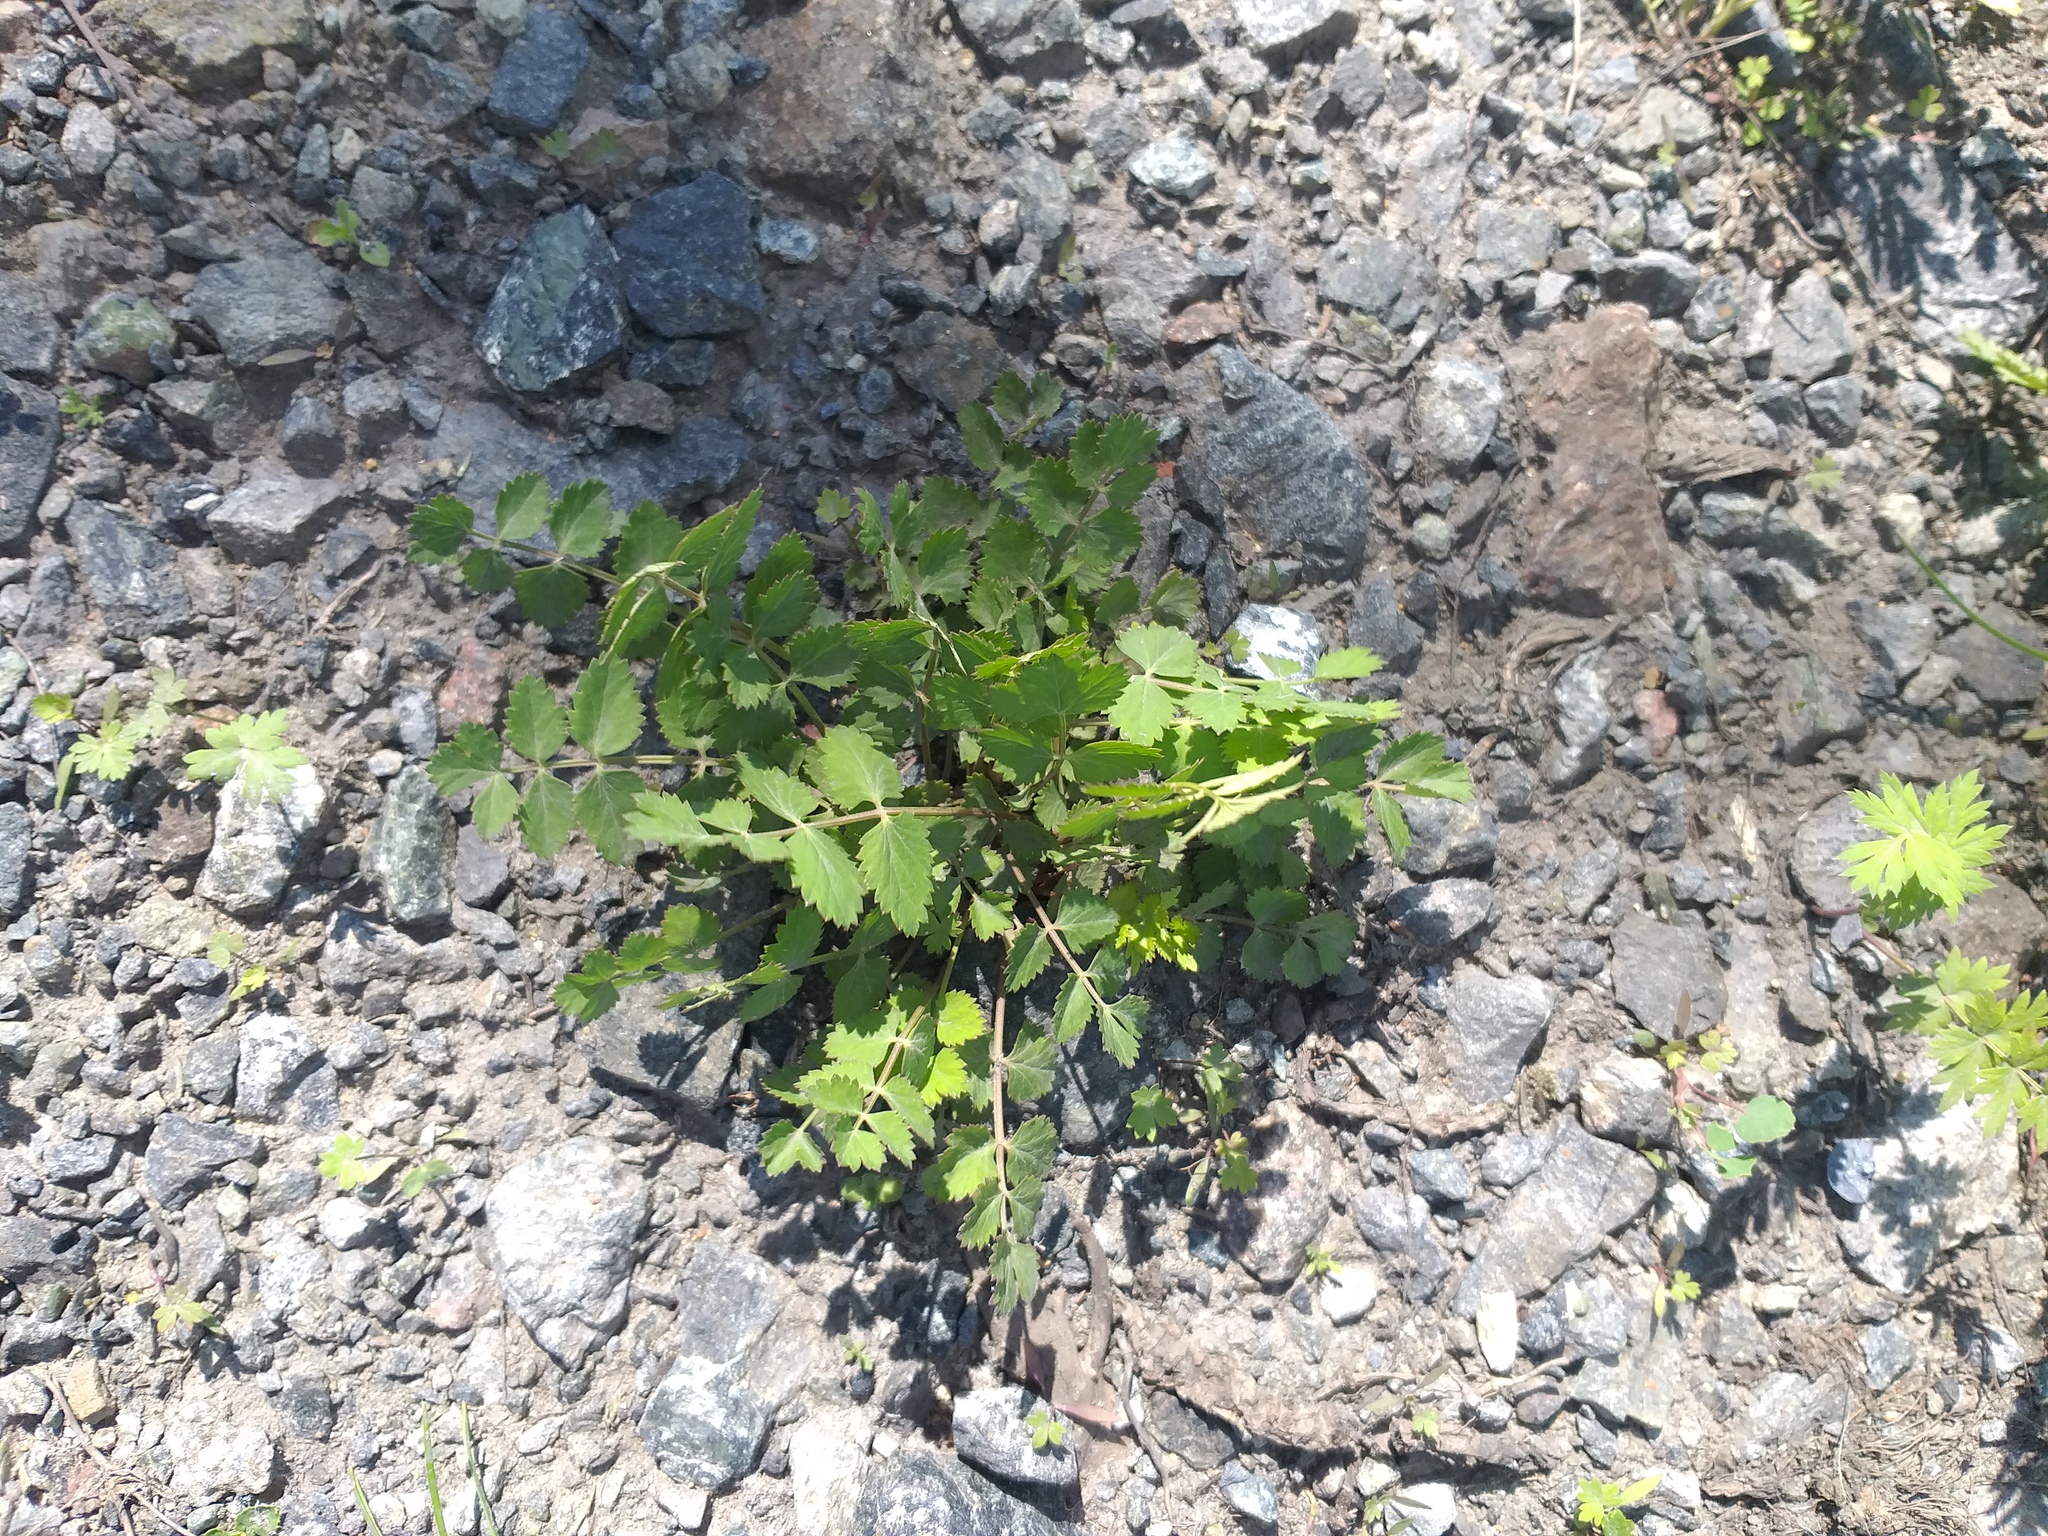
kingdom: Plantae
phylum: Tracheophyta
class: Magnoliopsida
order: Apiales
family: Apiaceae
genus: Pimpinella
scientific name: Pimpinella saxifraga
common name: Burnet-saxifrage
